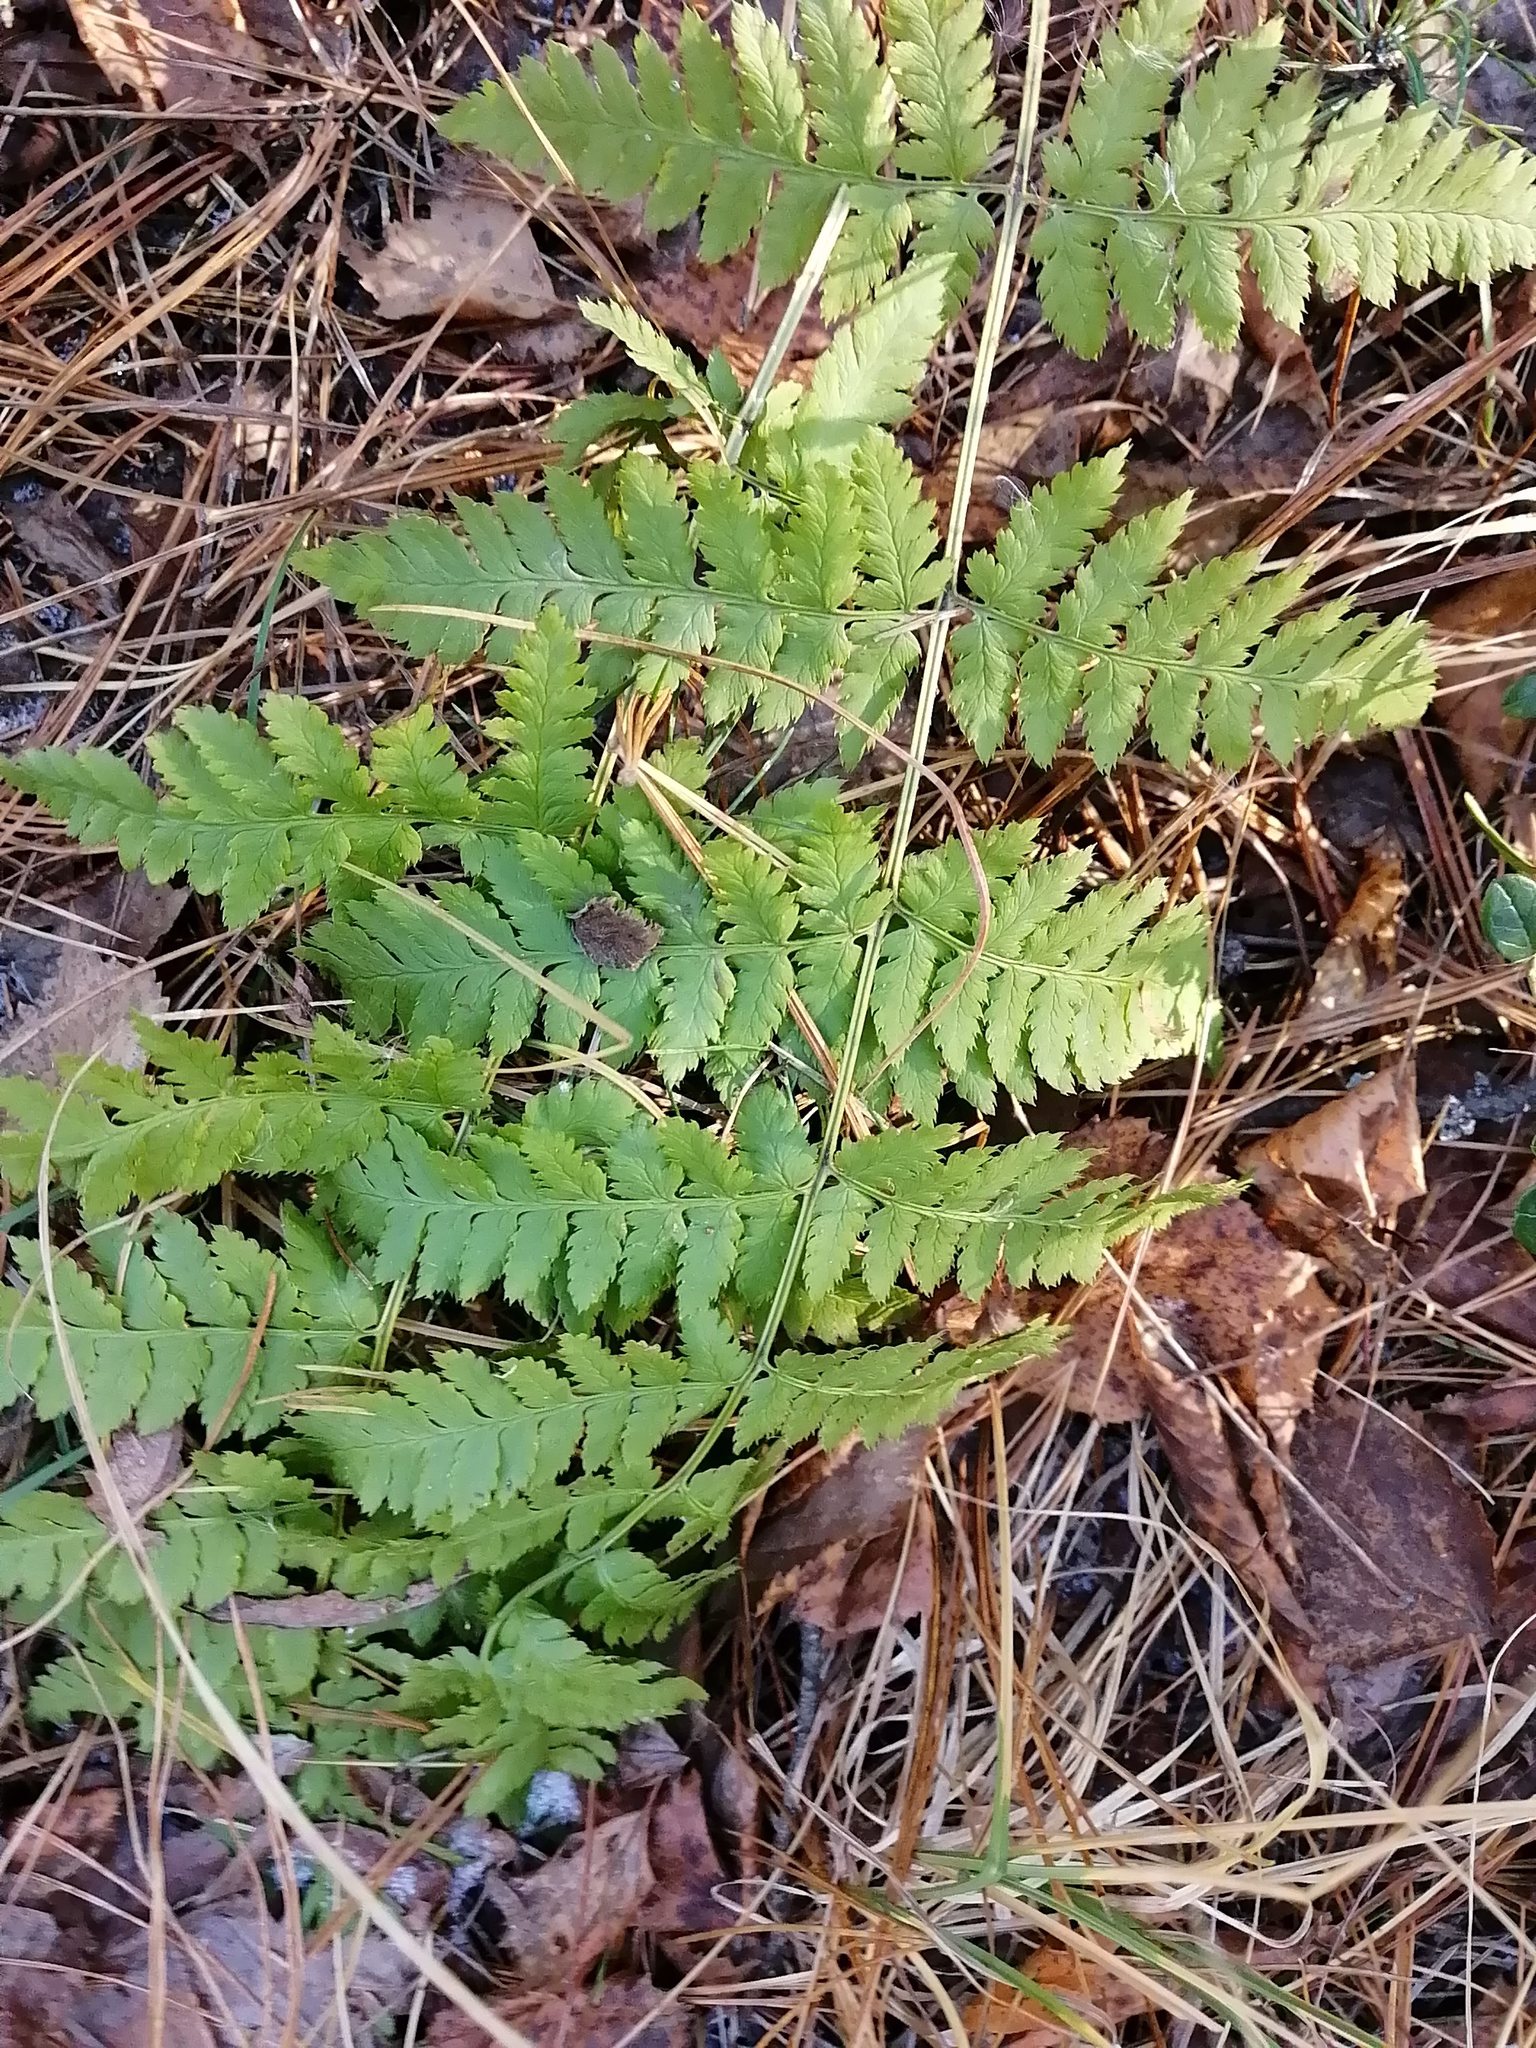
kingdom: Plantae
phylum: Tracheophyta
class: Polypodiopsida
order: Polypodiales
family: Dryopteridaceae
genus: Dryopteris
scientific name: Dryopteris carthusiana
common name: Narrow buckler-fern
